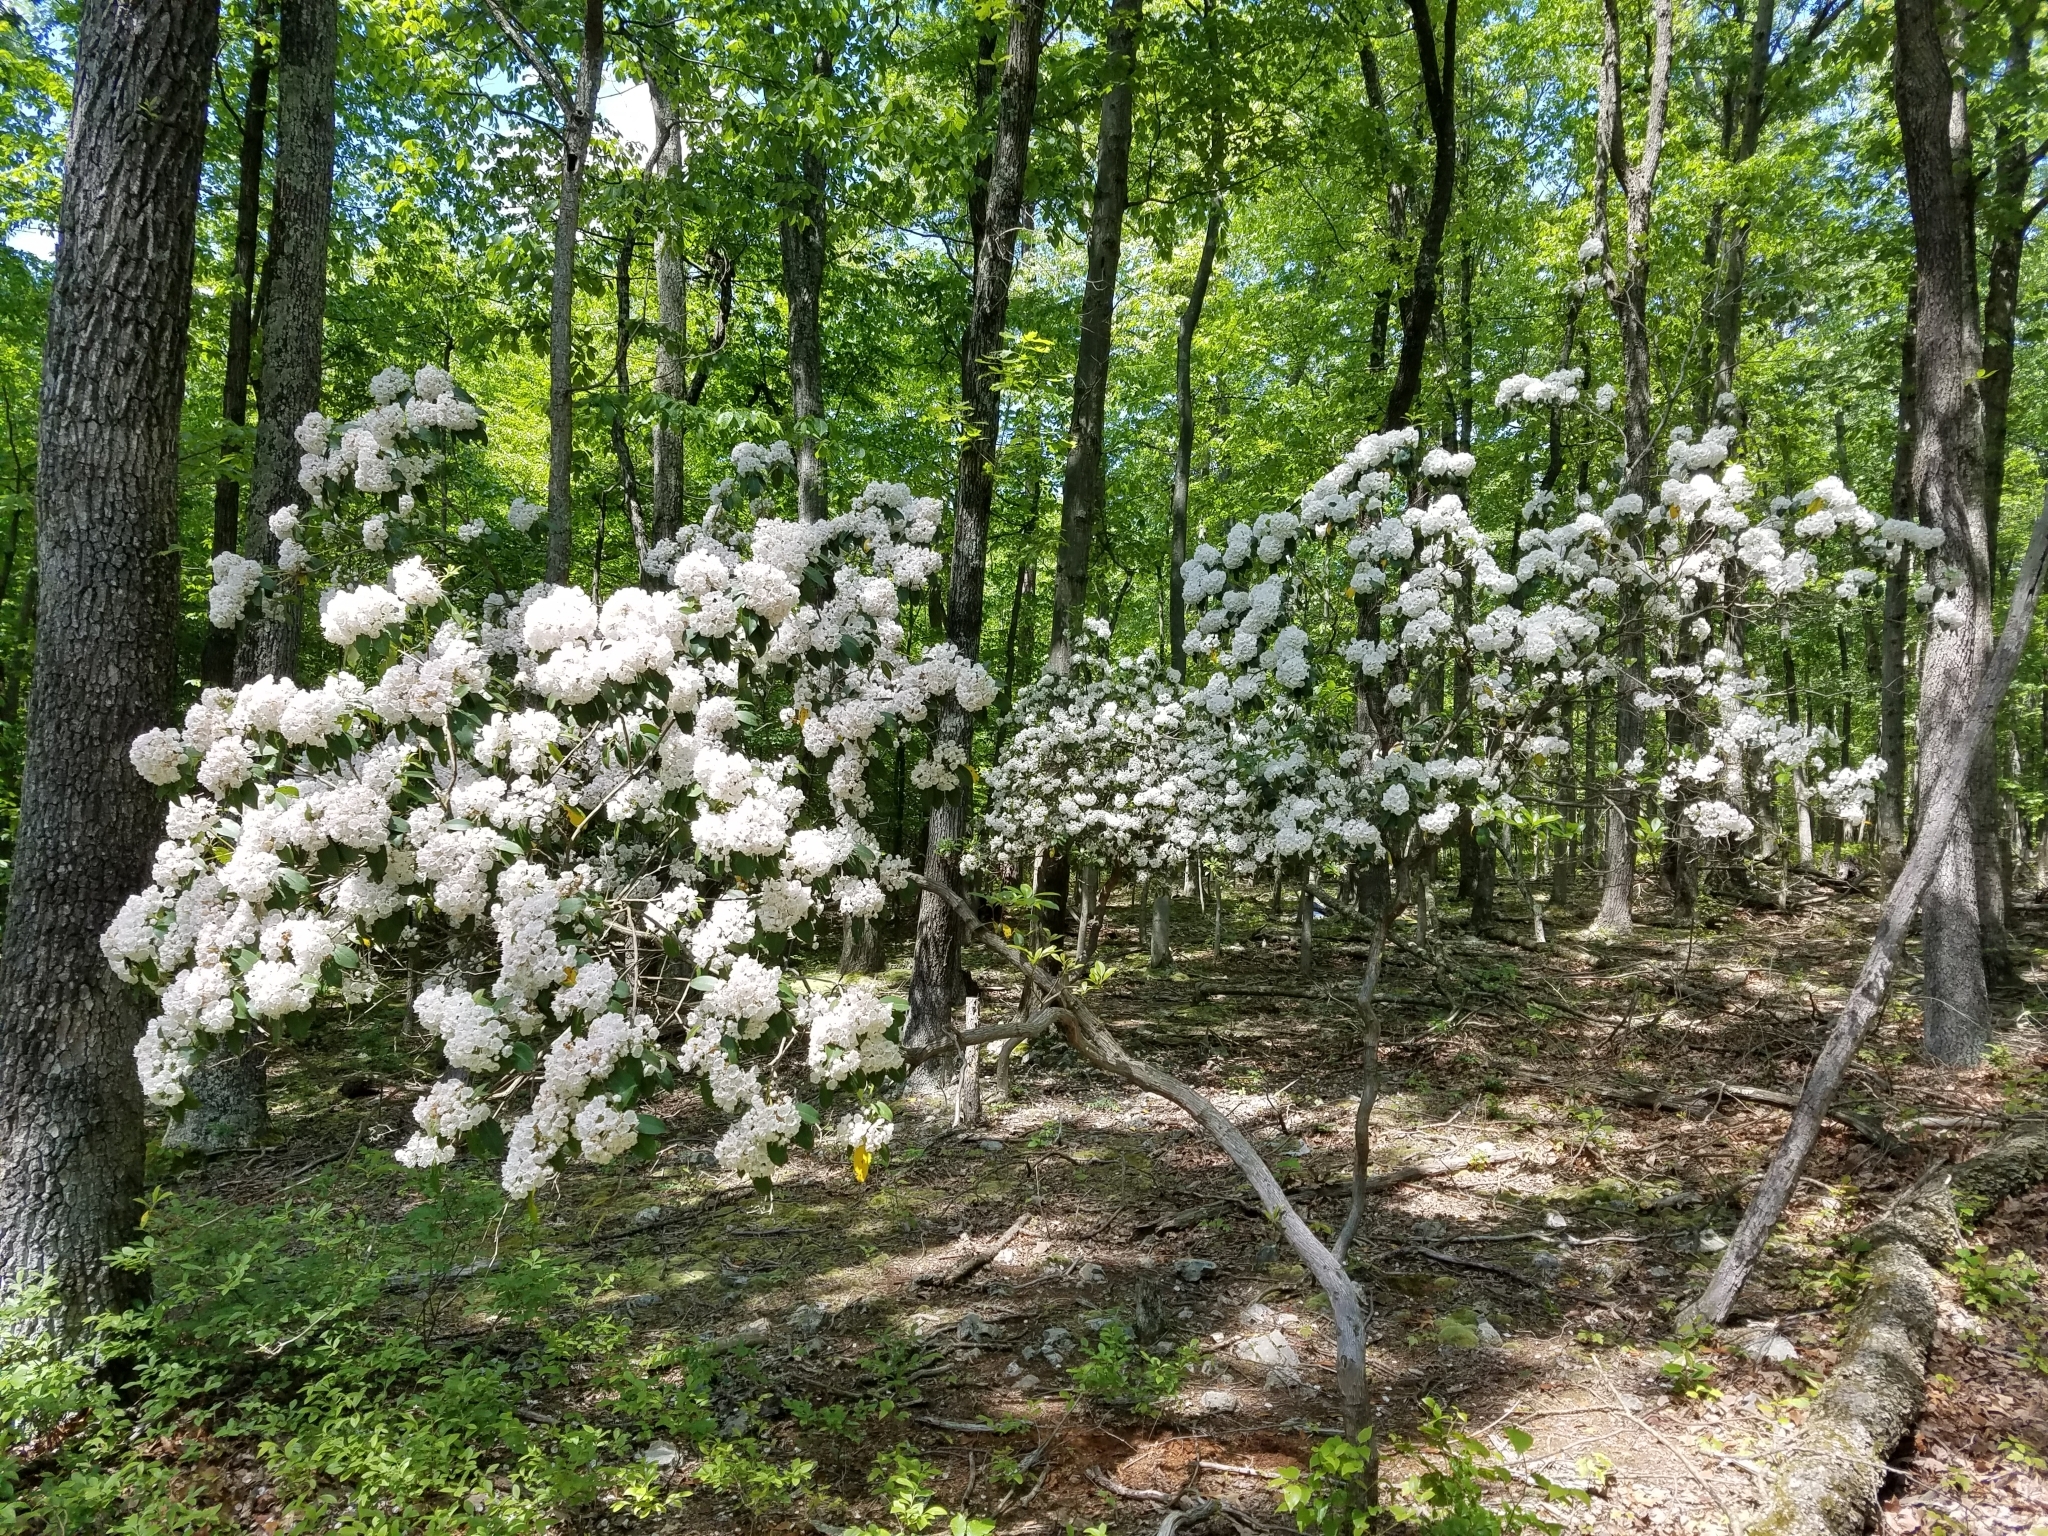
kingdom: Plantae
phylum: Tracheophyta
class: Magnoliopsida
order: Ericales
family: Ericaceae
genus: Kalmia
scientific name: Kalmia latifolia
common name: Mountain-laurel
